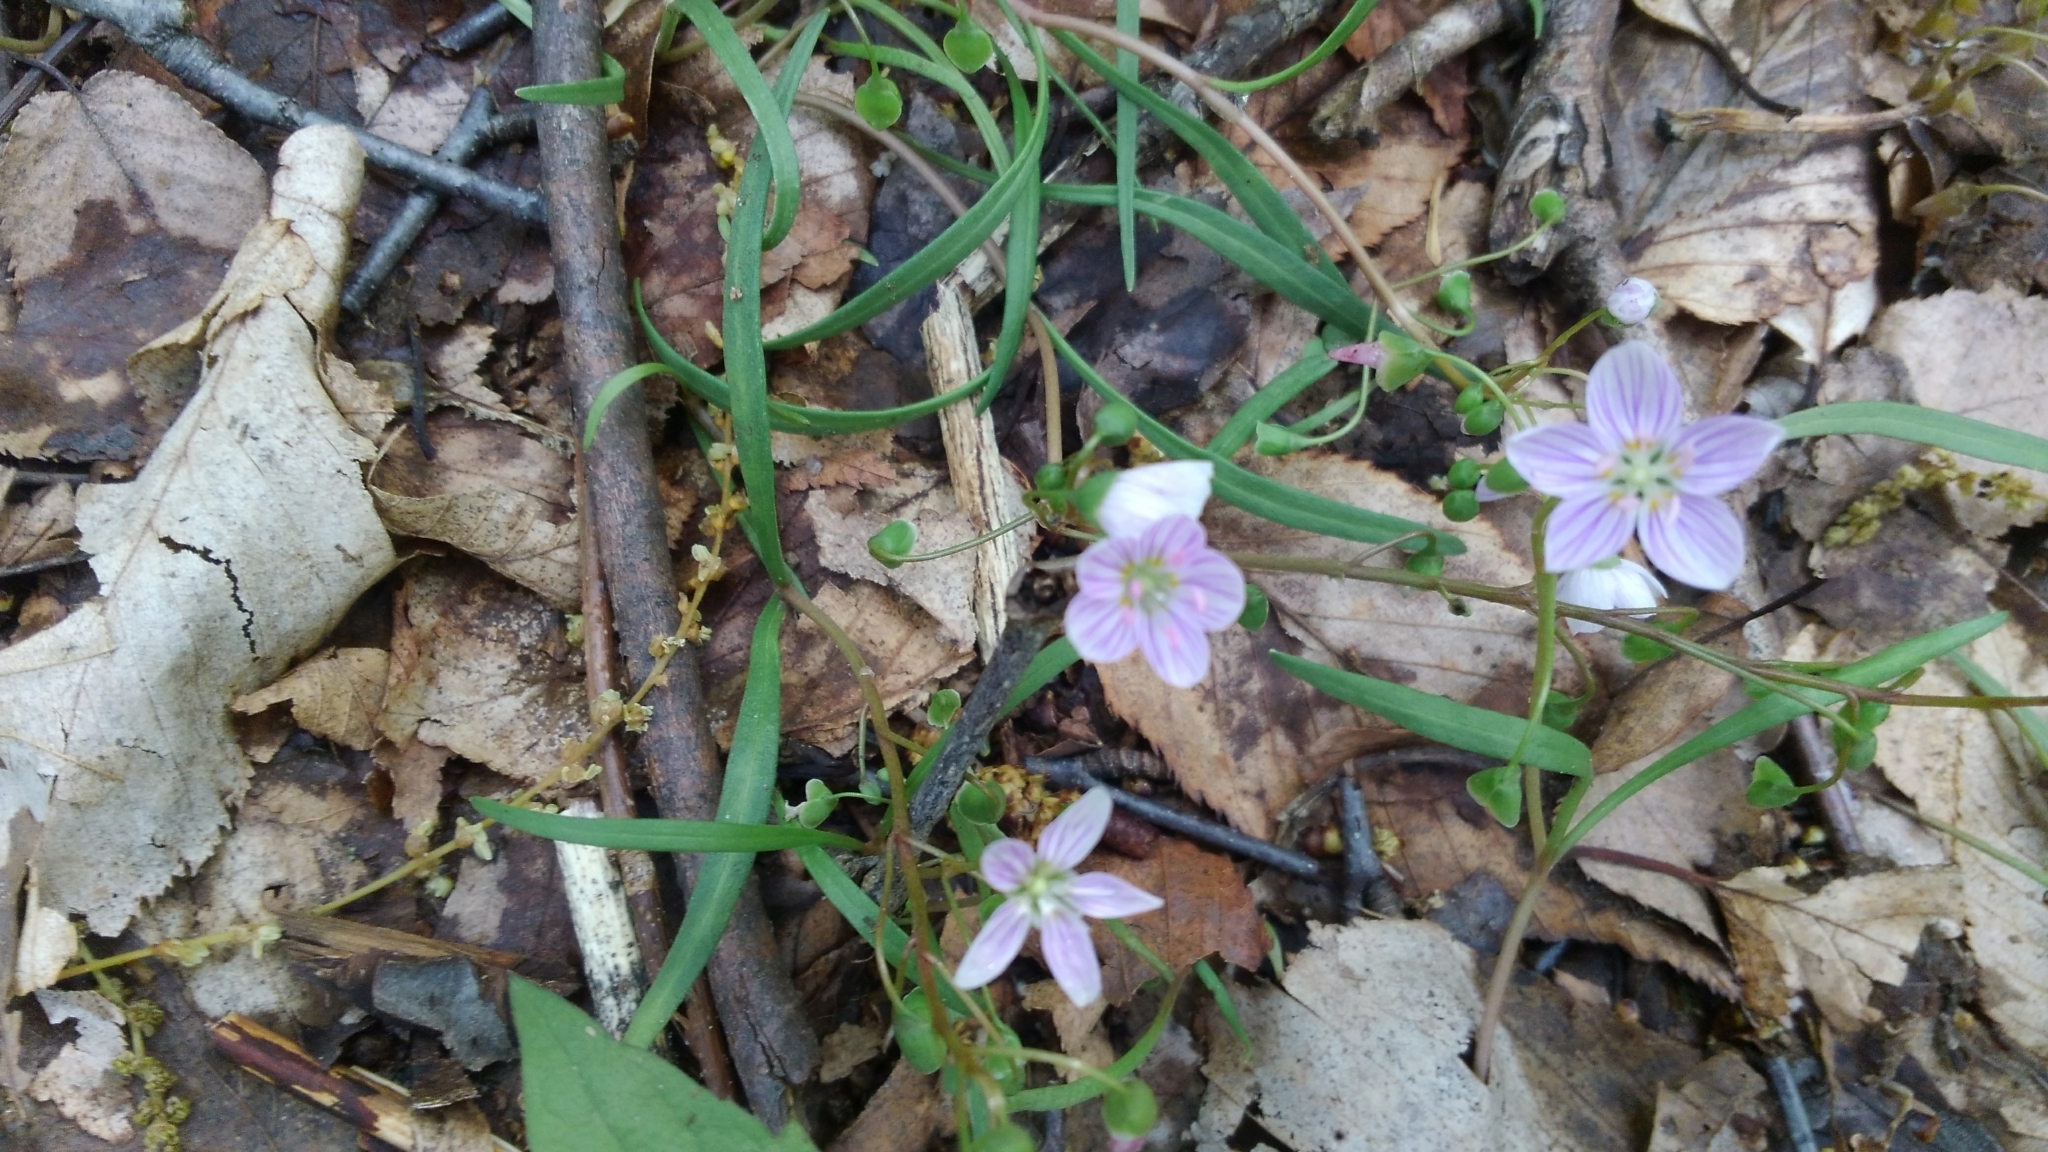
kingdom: Plantae
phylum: Tracheophyta
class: Magnoliopsida
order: Caryophyllales
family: Montiaceae
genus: Claytonia
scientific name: Claytonia virginica
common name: Virginia springbeauty
